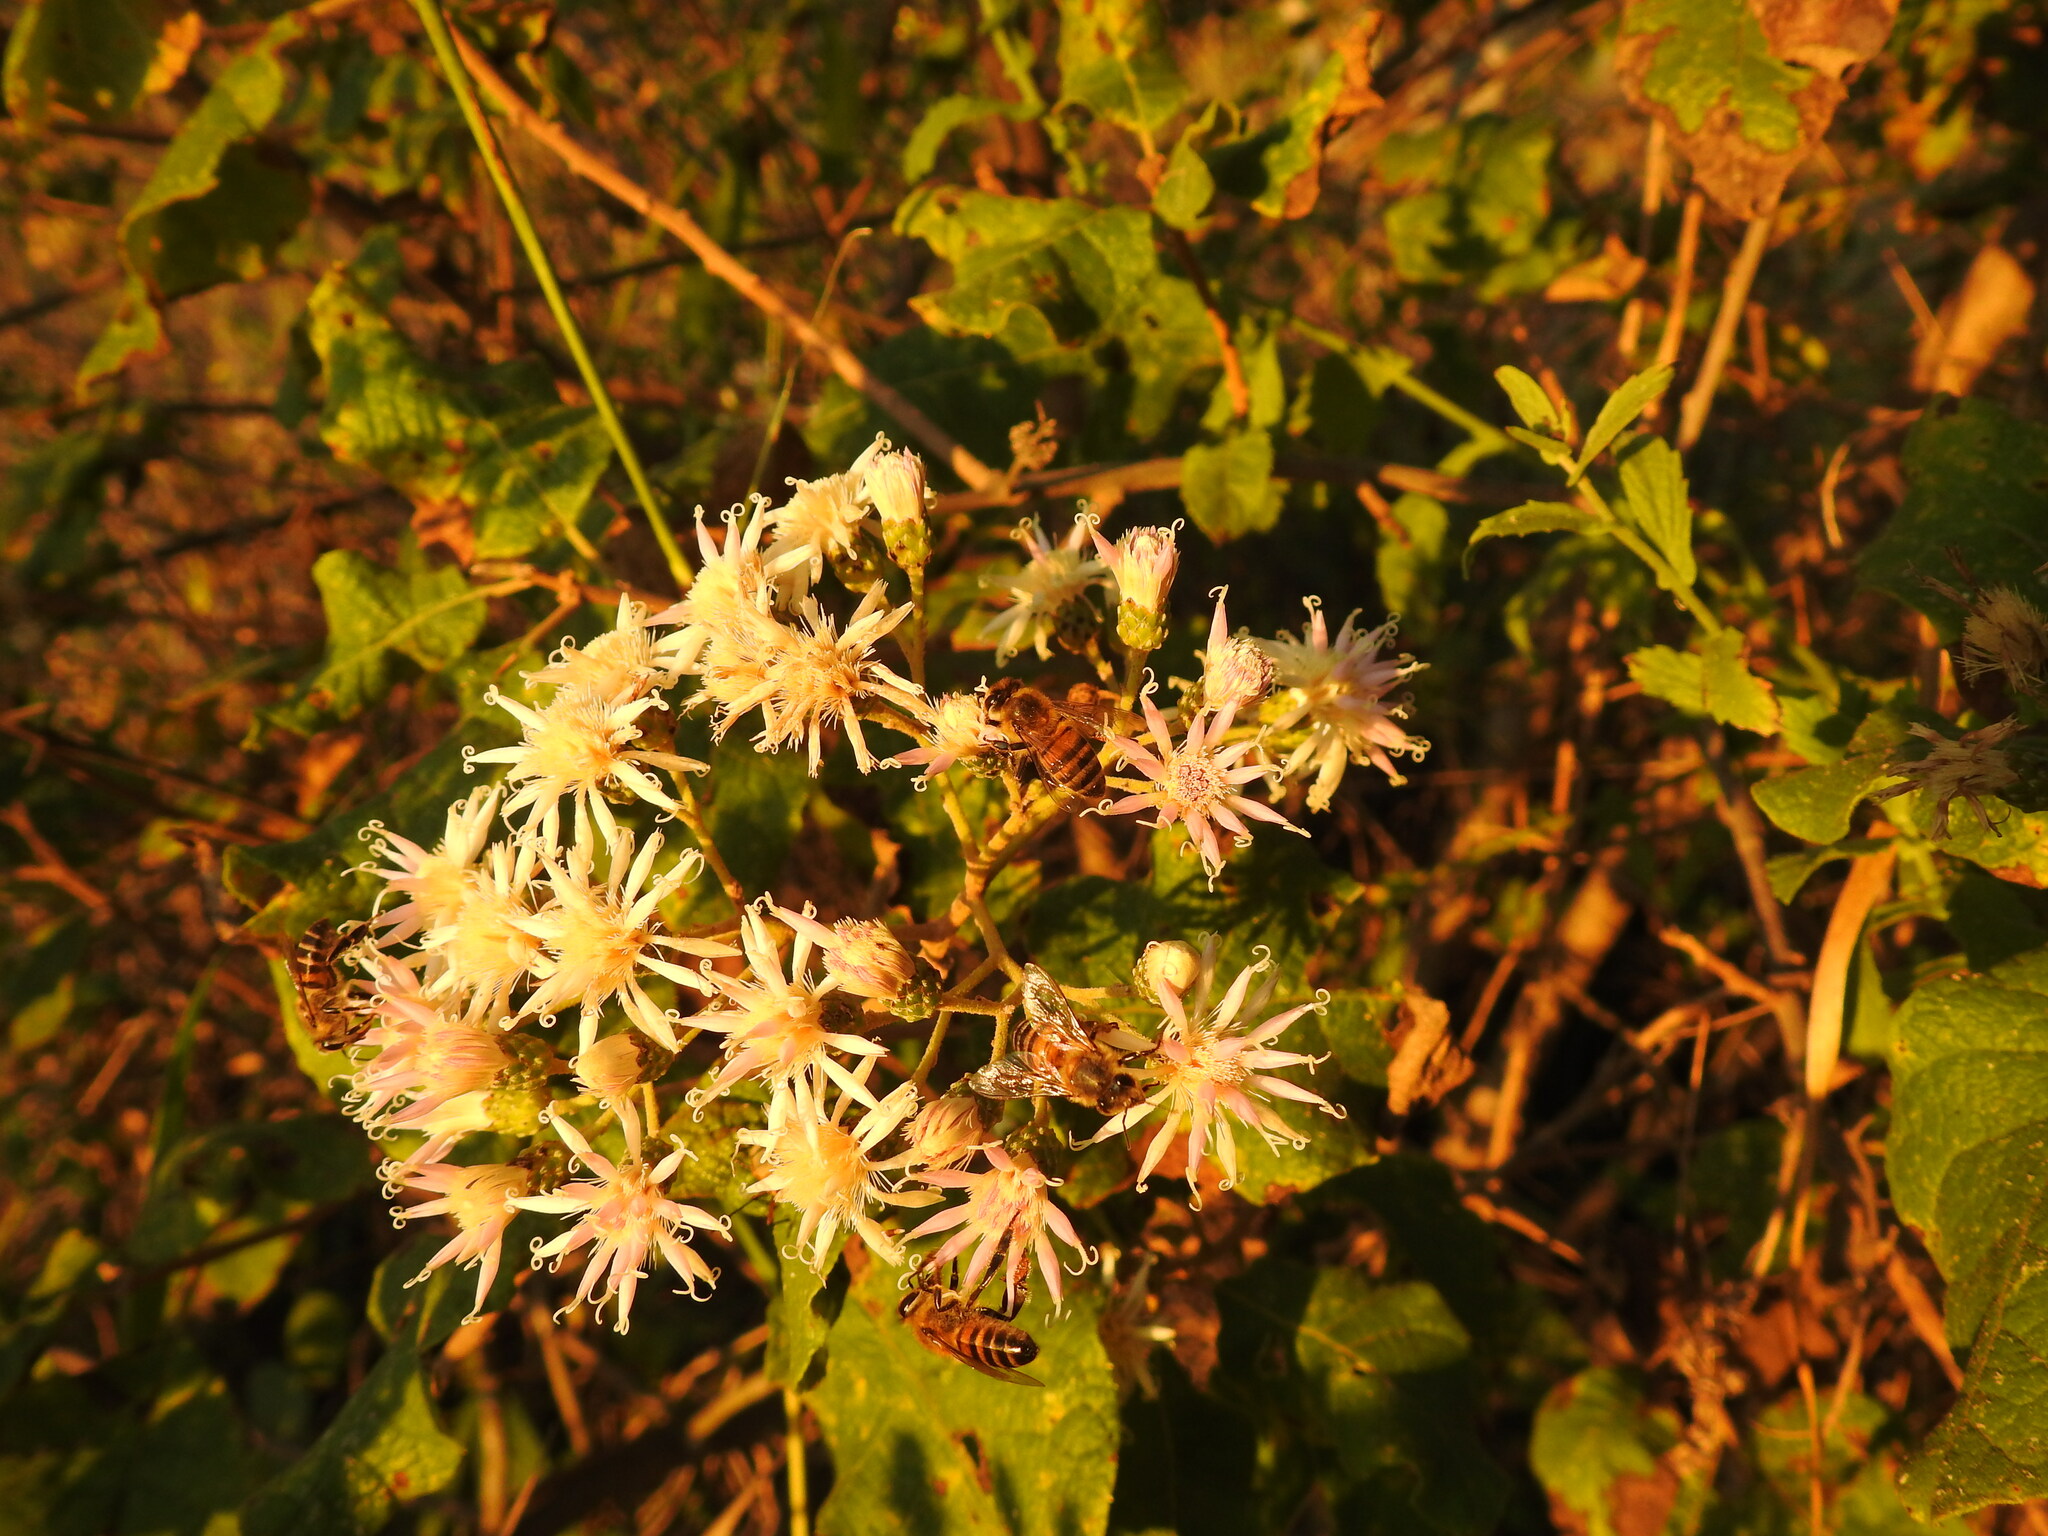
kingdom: Animalia
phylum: Arthropoda
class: Insecta
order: Hymenoptera
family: Apidae
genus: Apis
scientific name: Apis mellifera
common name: Honey bee
